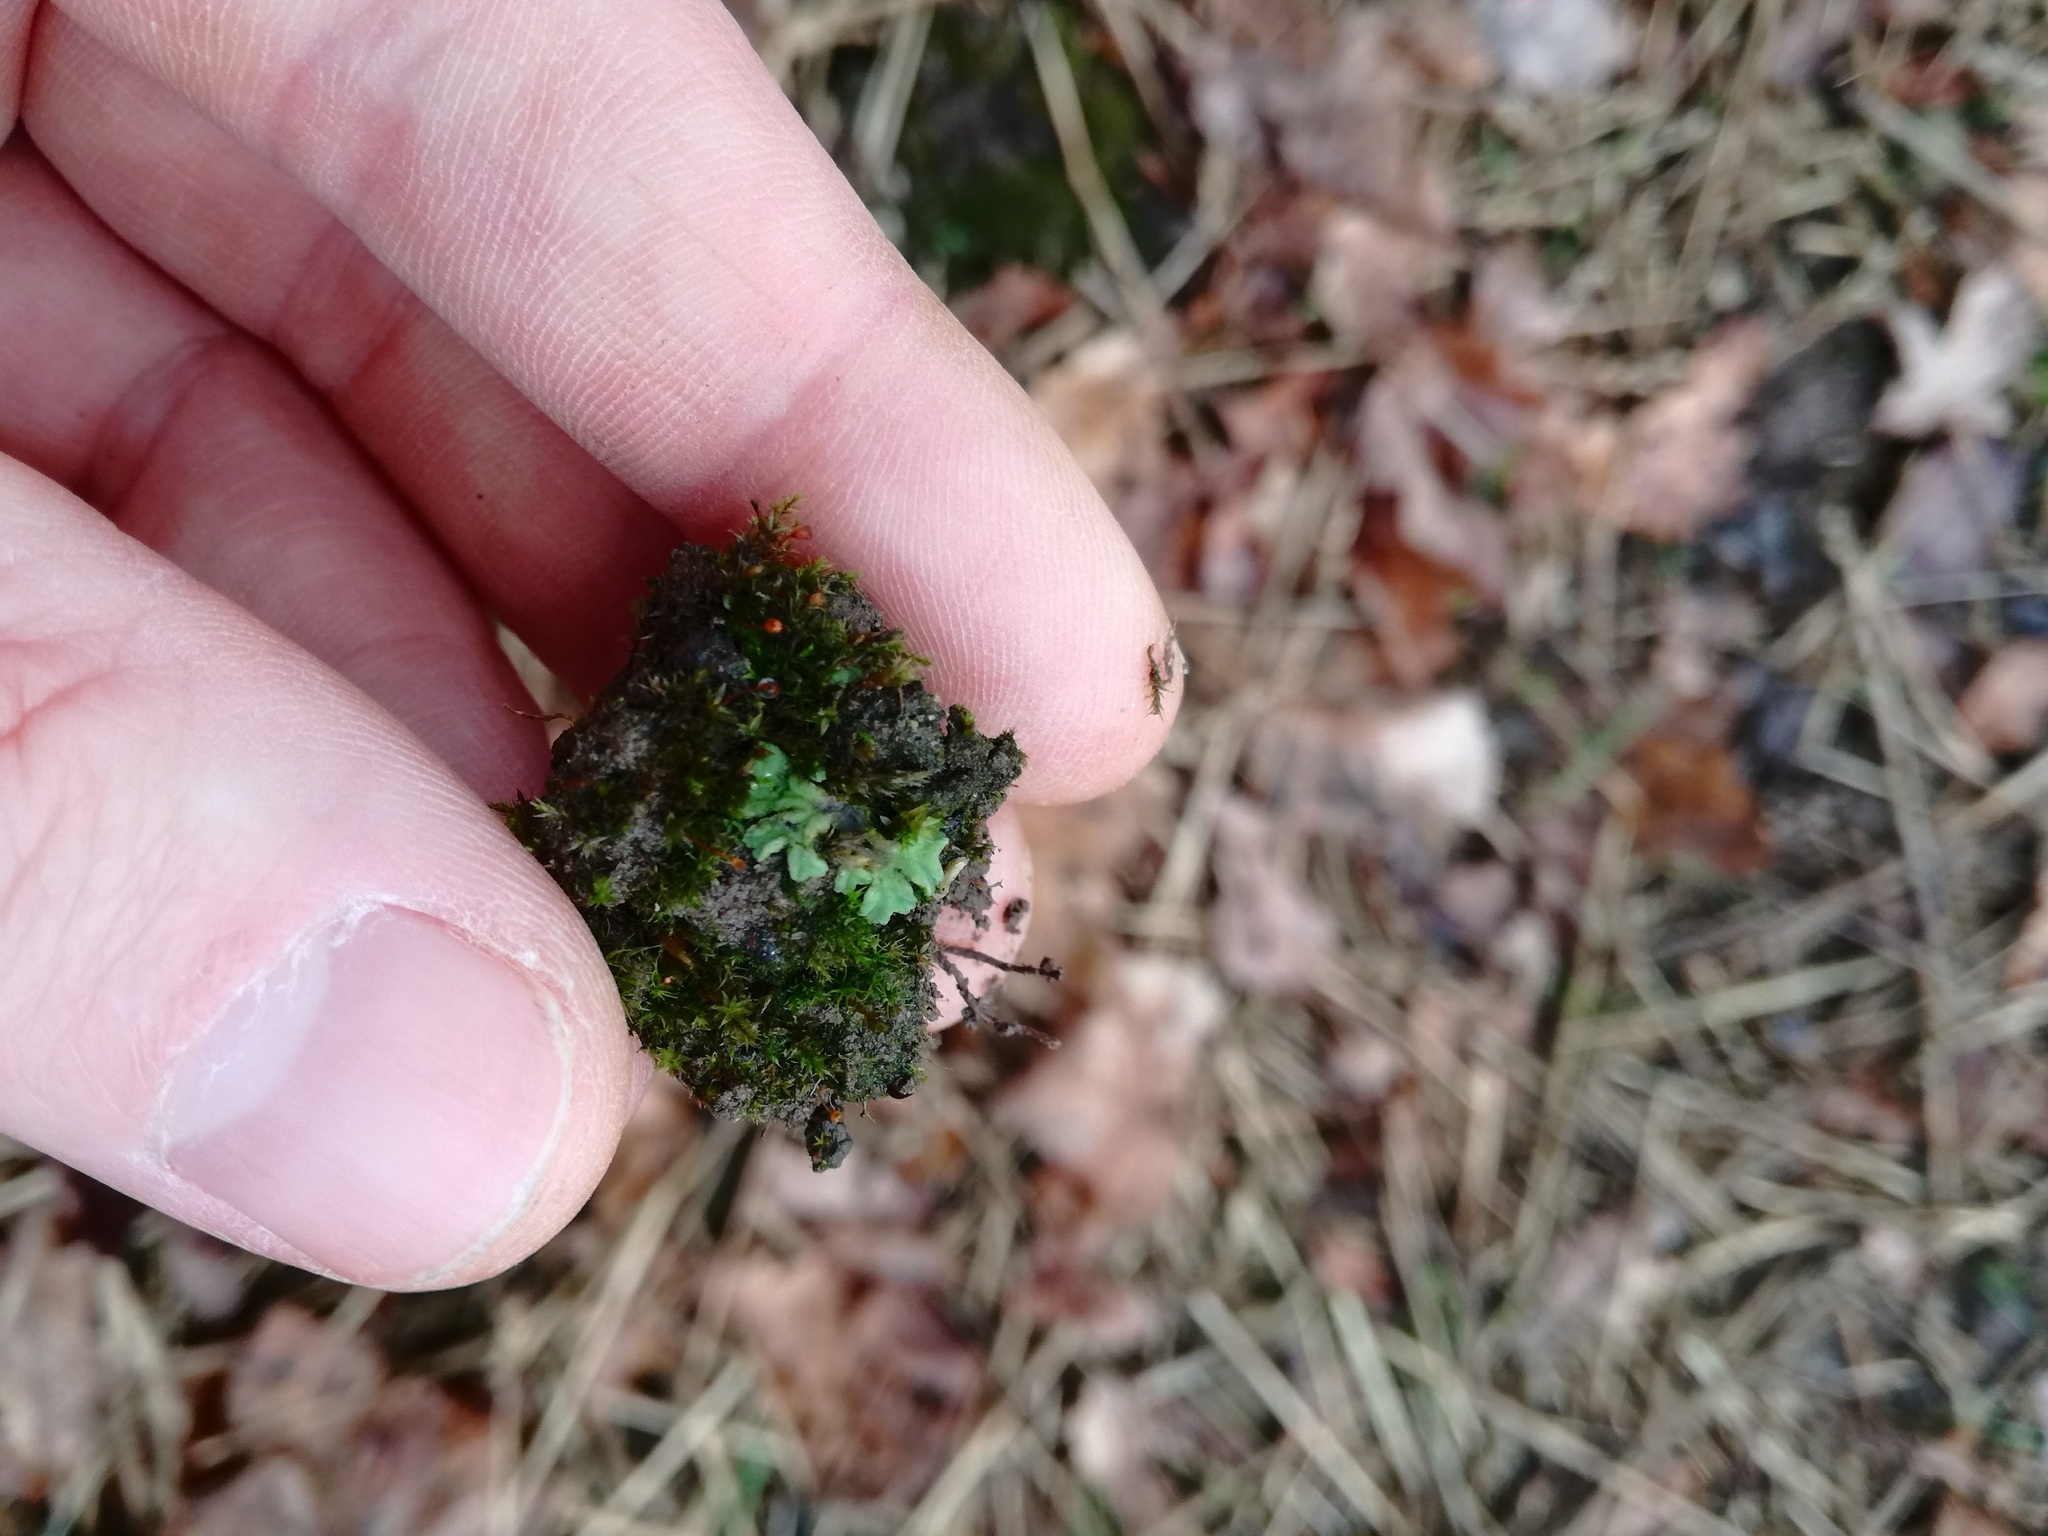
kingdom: Plantae
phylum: Marchantiophyta
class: Marchantiopsida
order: Marchantiales
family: Ricciaceae
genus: Riccia
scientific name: Riccia glauca
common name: Glaucous crystalwort
